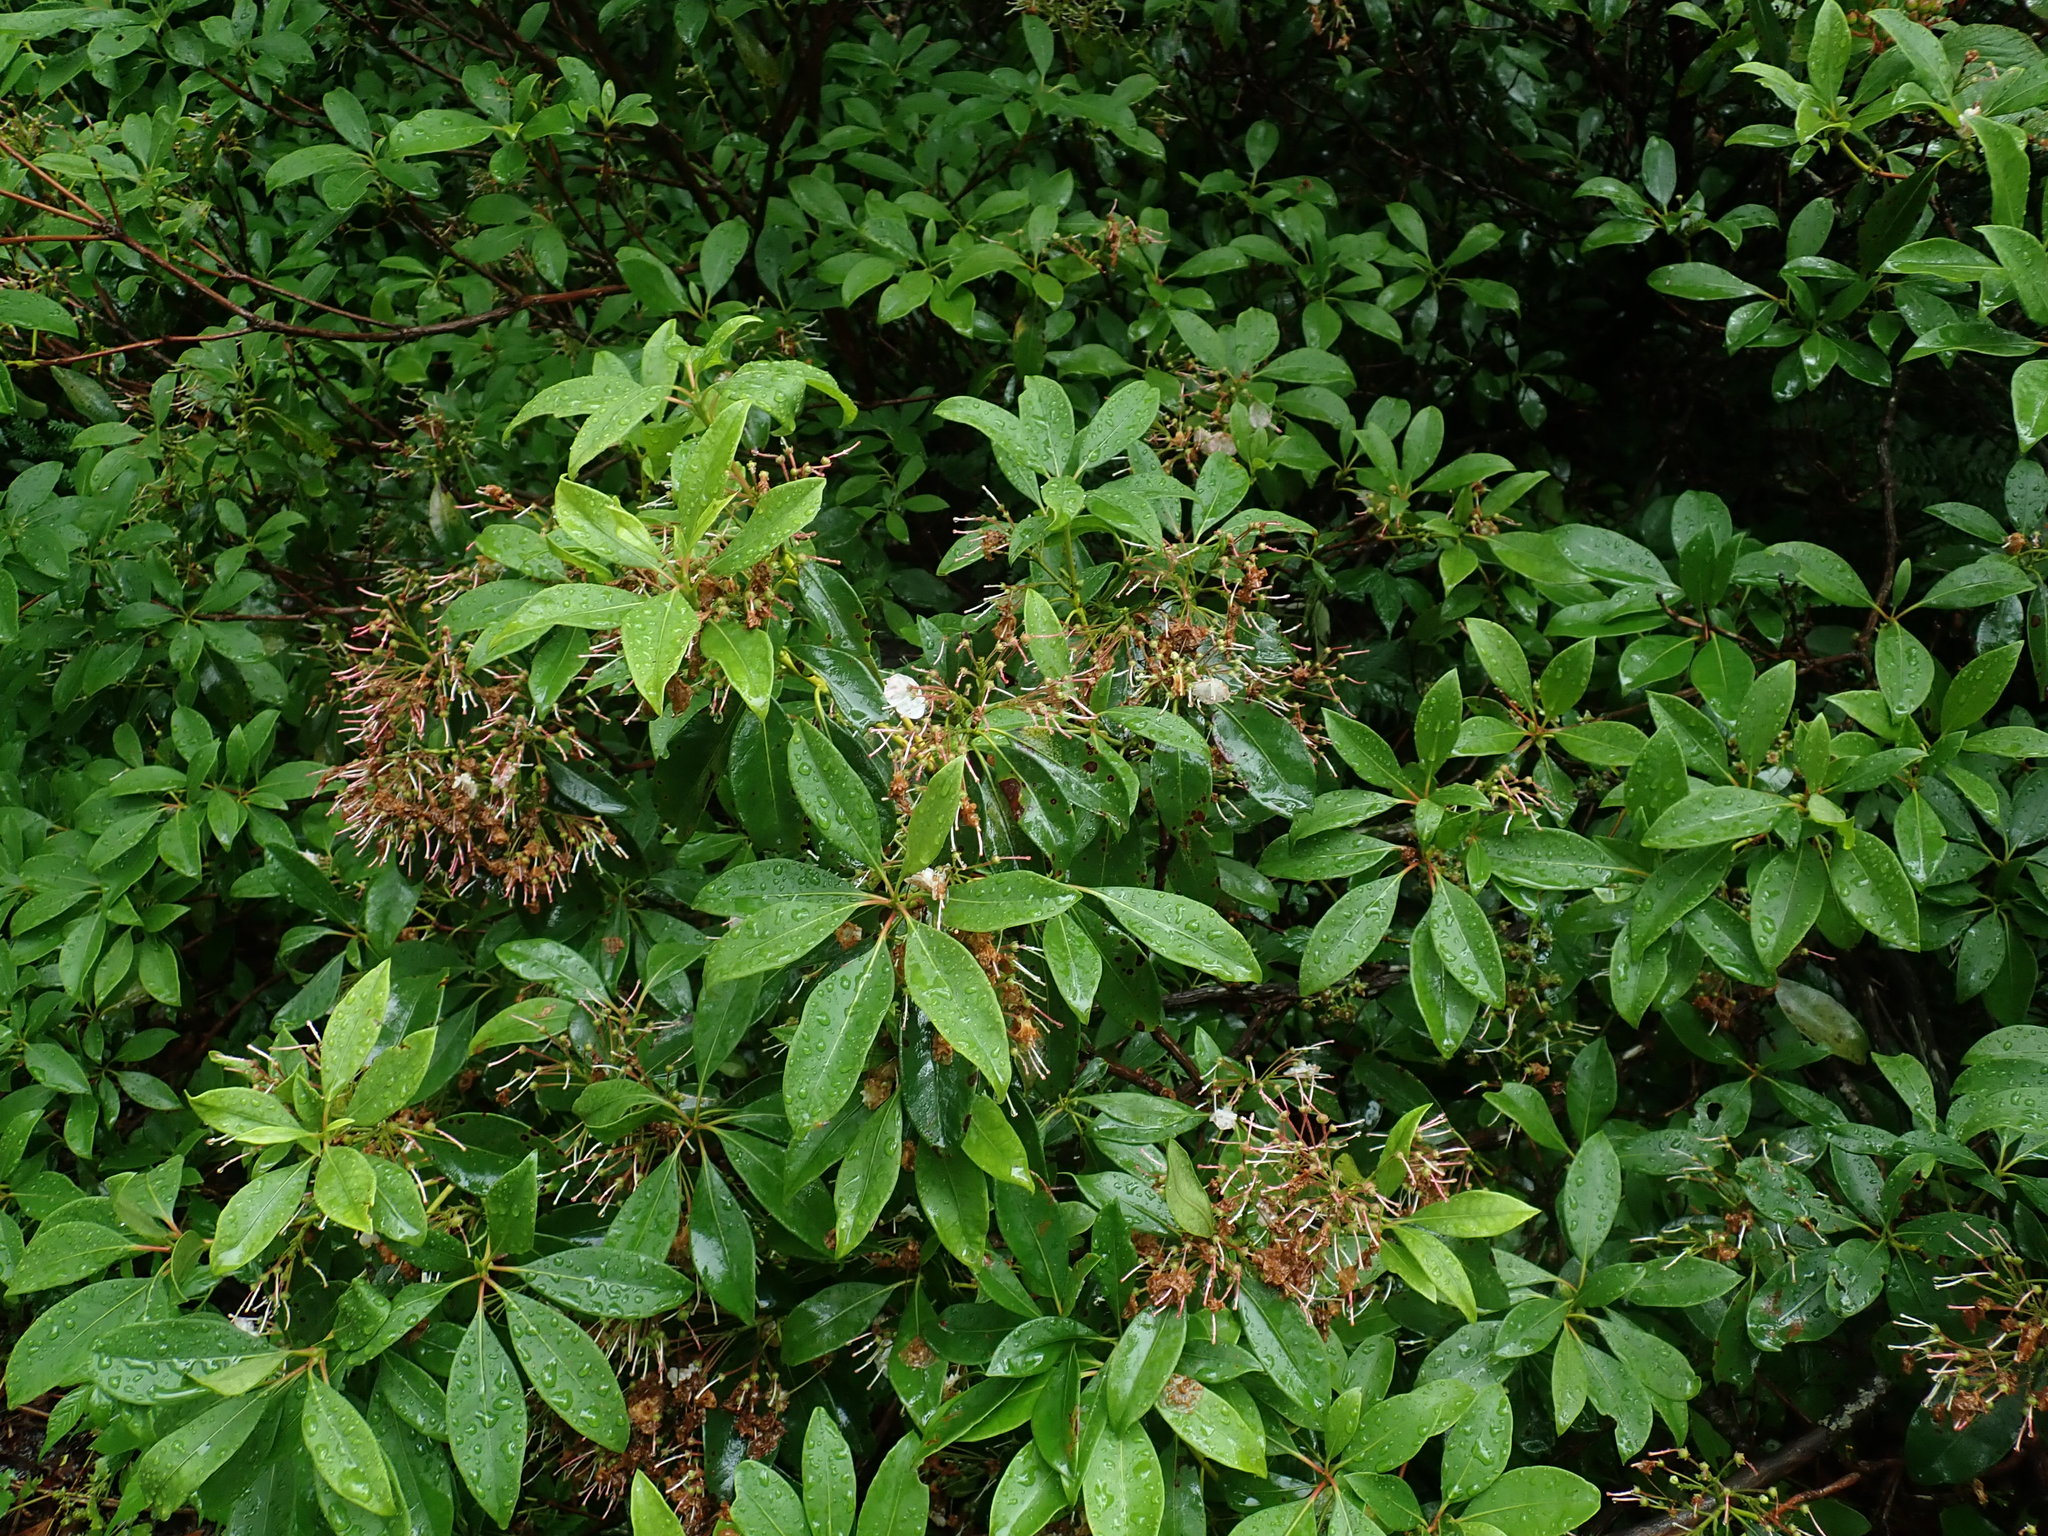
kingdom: Plantae
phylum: Tracheophyta
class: Magnoliopsida
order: Ericales
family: Ericaceae
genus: Kalmia
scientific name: Kalmia latifolia
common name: Mountain-laurel
